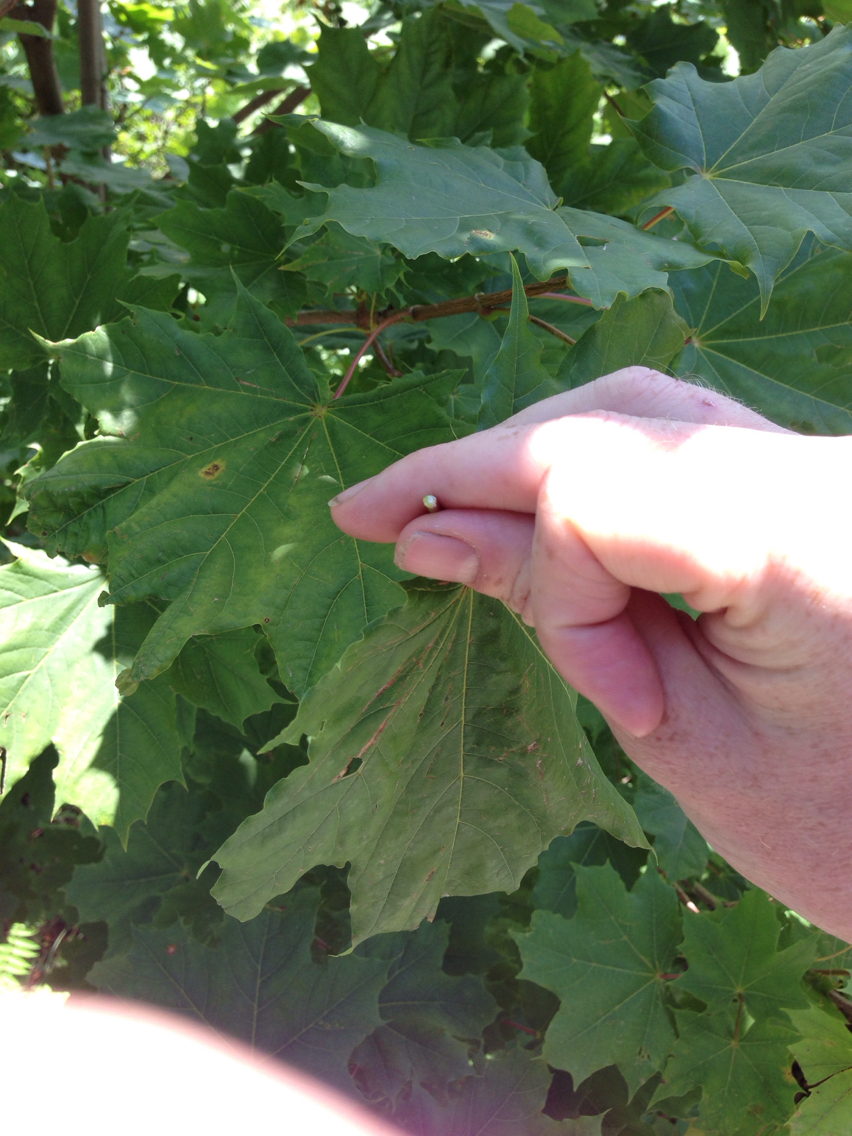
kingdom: Plantae
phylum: Tracheophyta
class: Magnoliopsida
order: Sapindales
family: Sapindaceae
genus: Acer
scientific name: Acer platanoides
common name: Norway maple
